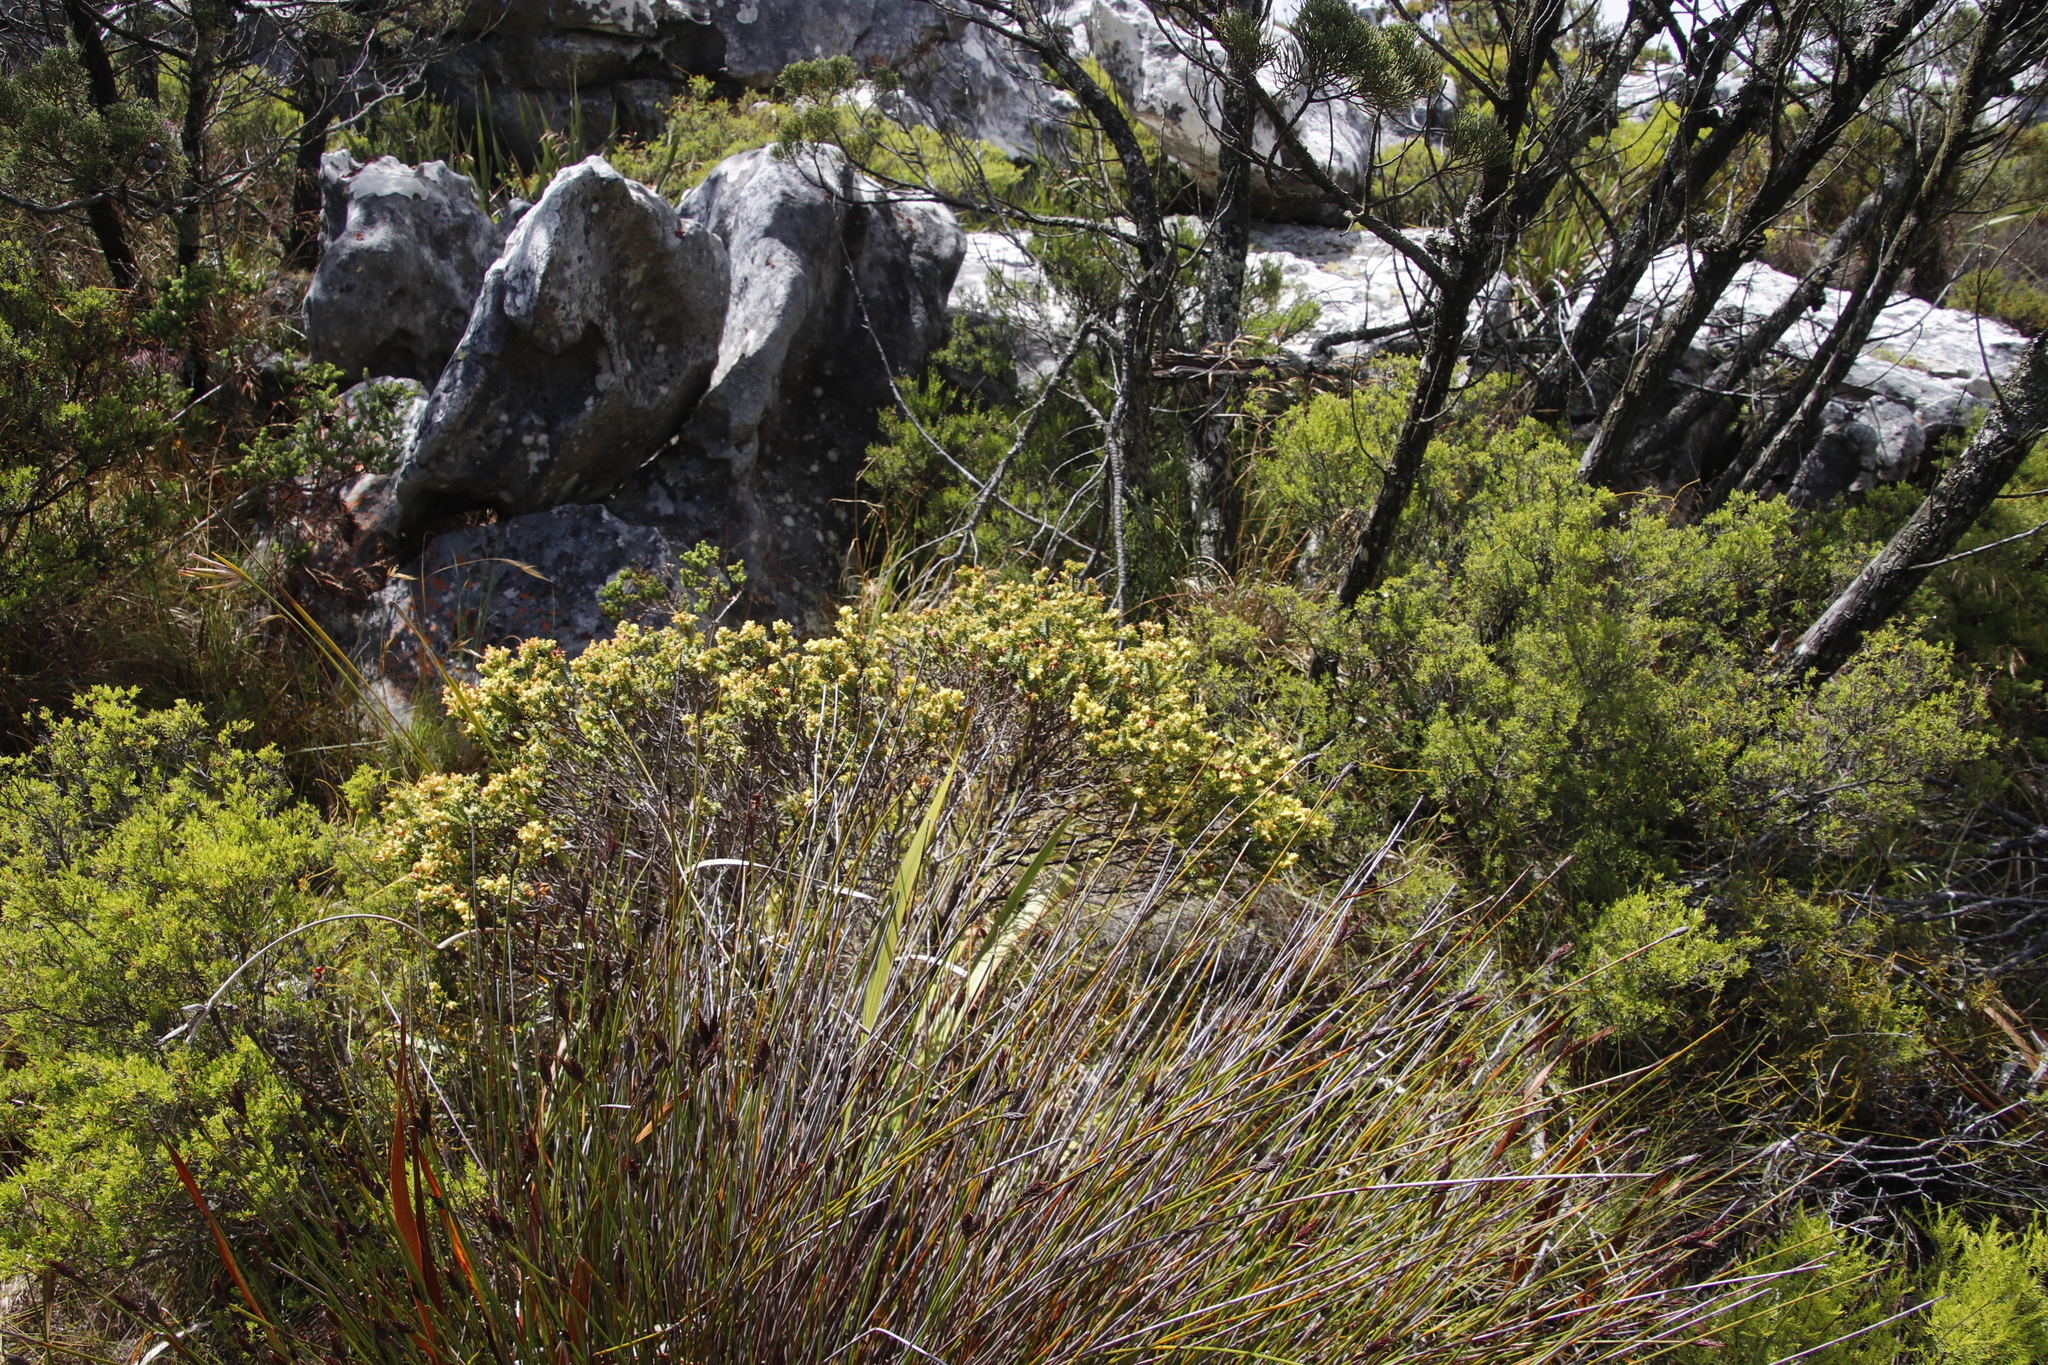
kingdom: Plantae
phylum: Tracheophyta
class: Magnoliopsida
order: Myrtales
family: Penaeaceae
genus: Penaea
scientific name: Penaea mucronata
